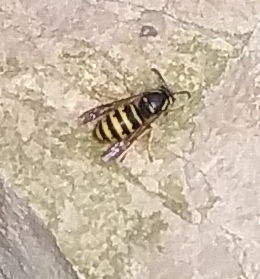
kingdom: Animalia
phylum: Arthropoda
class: Insecta
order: Hymenoptera
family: Vespidae
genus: Dolichovespula
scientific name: Dolichovespula alpicola
